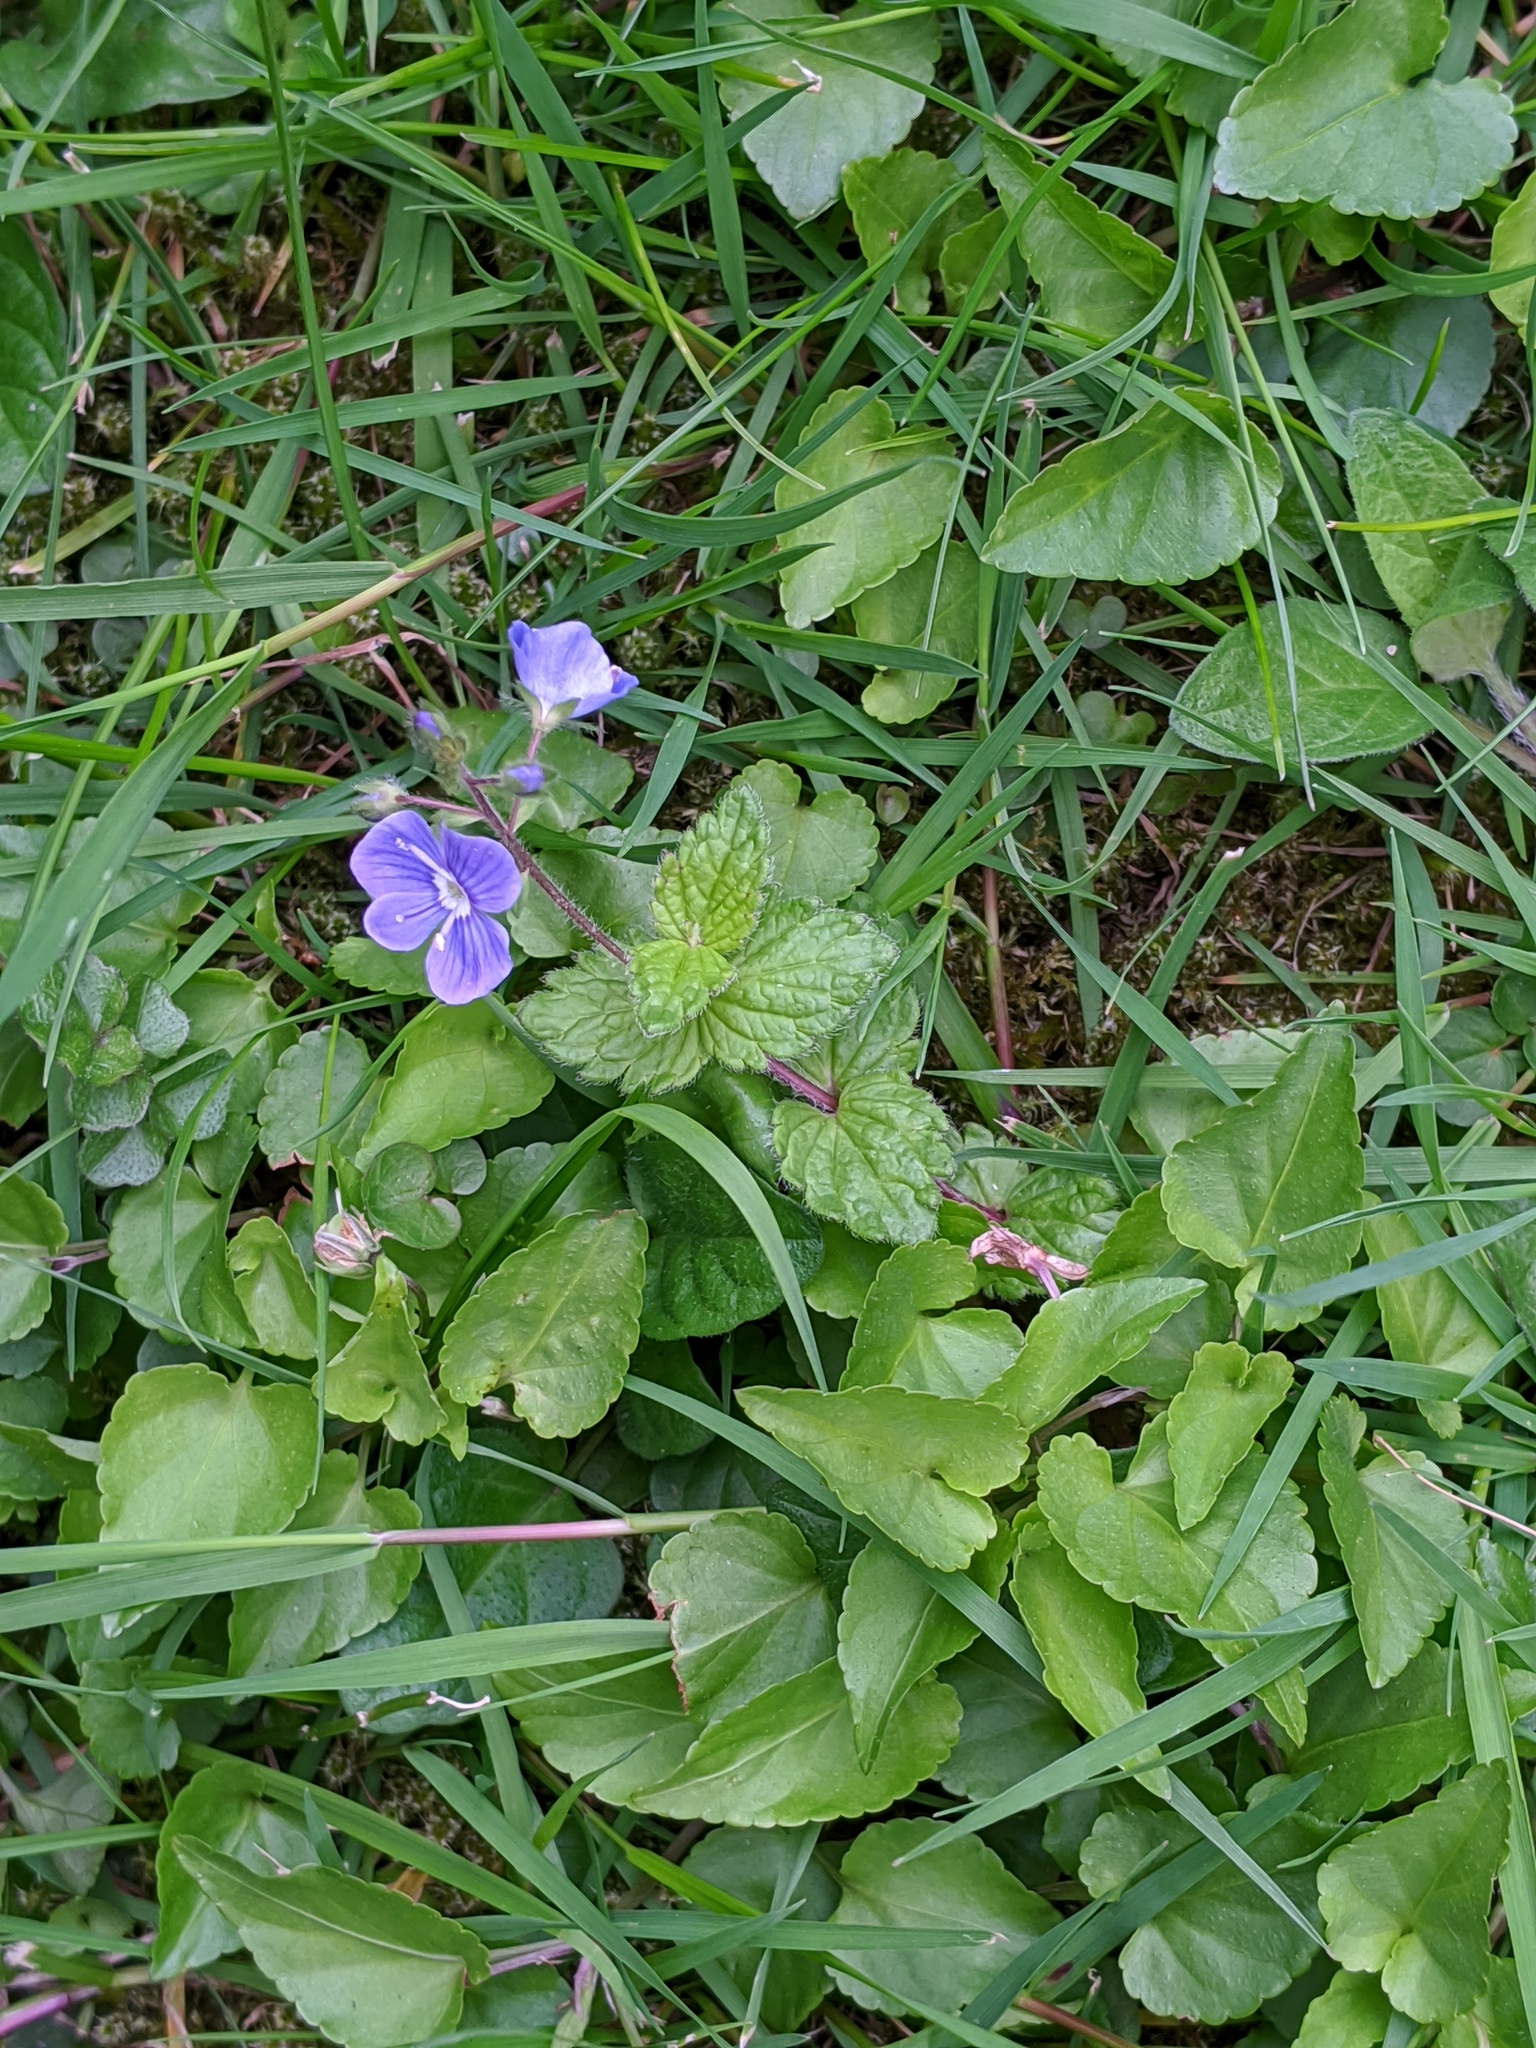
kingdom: Plantae
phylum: Tracheophyta
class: Magnoliopsida
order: Lamiales
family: Plantaginaceae
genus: Veronica
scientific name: Veronica chamaedrys
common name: Germander speedwell
